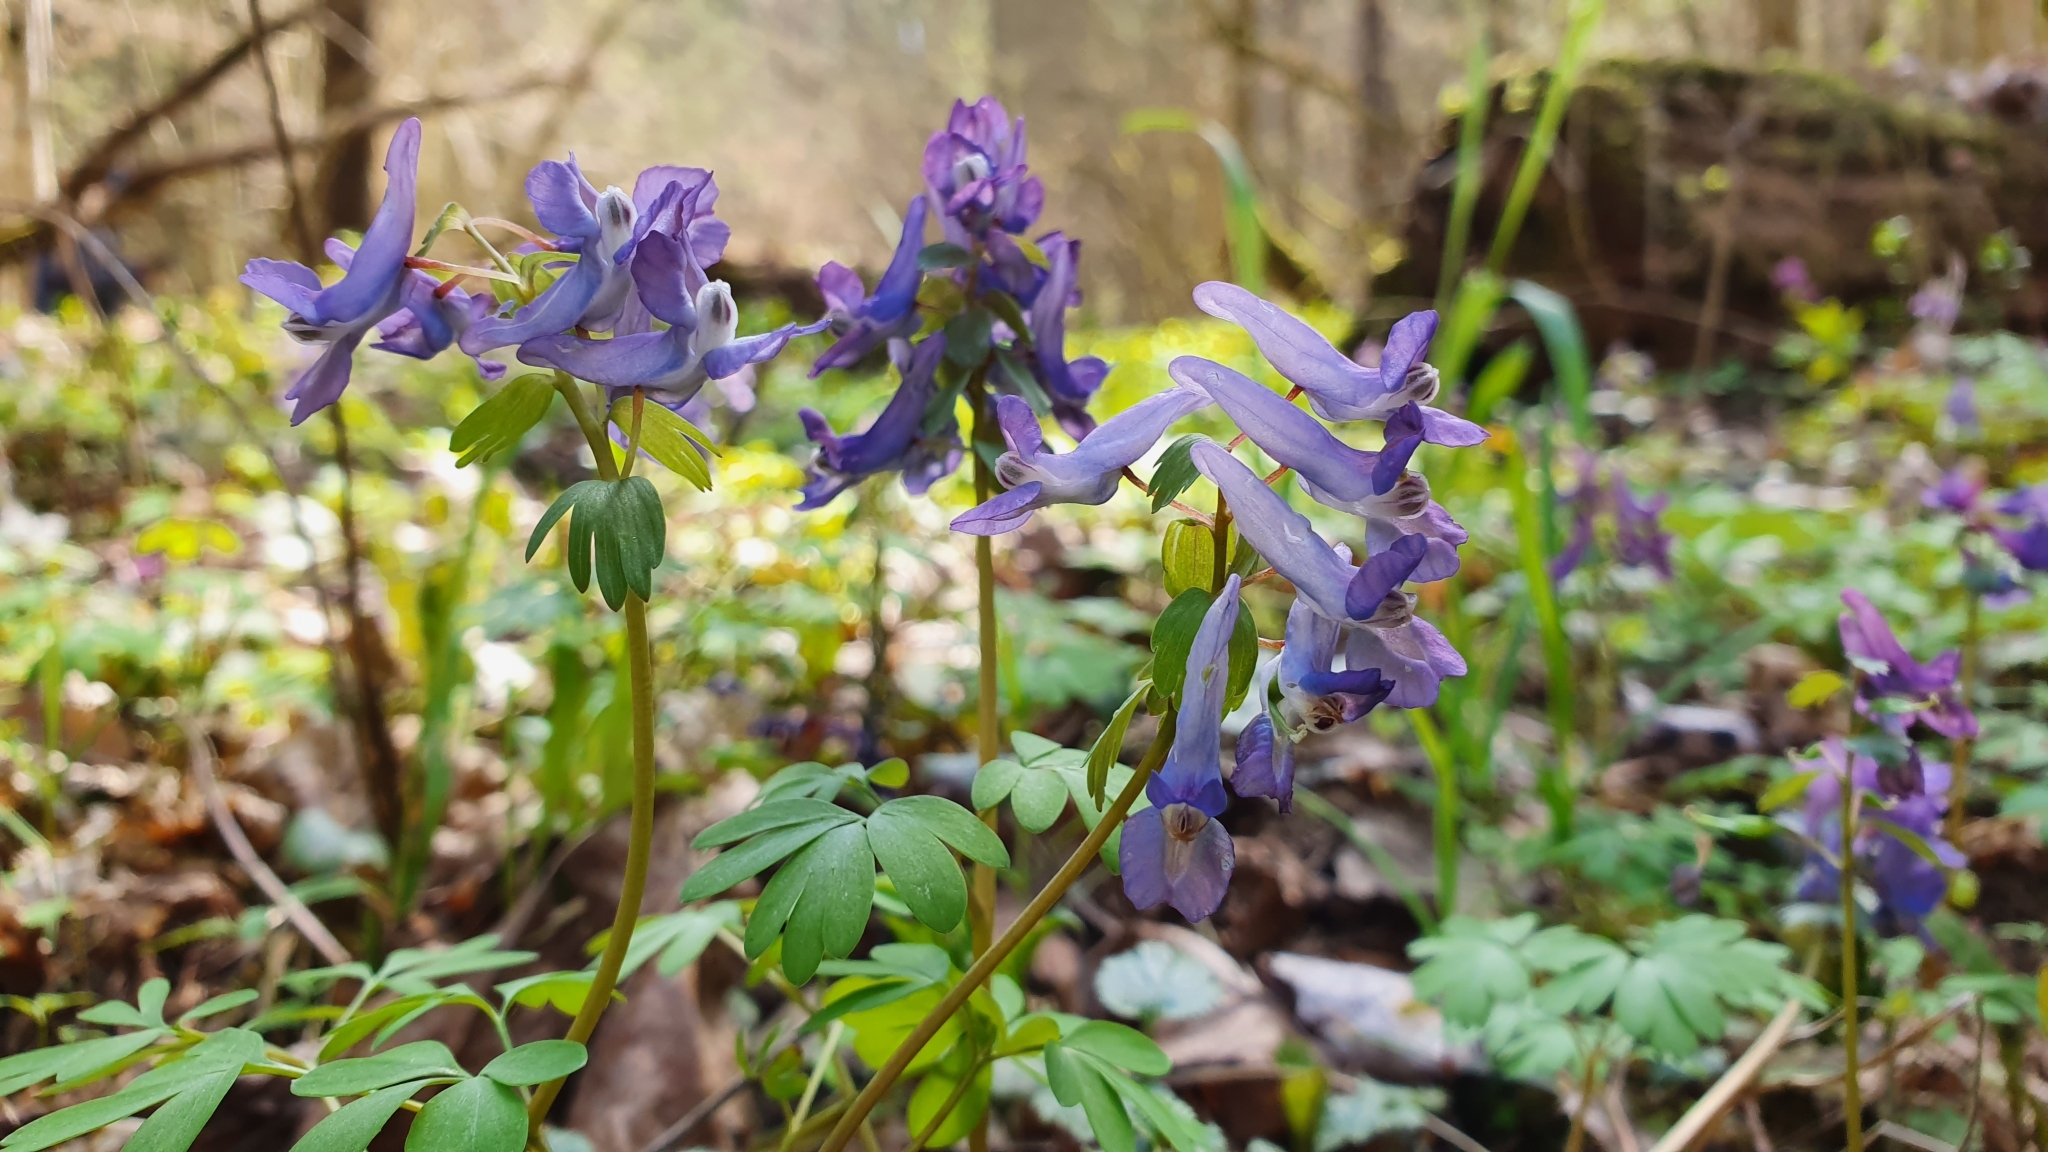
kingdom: Plantae
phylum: Tracheophyta
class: Magnoliopsida
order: Ranunculales
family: Papaveraceae
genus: Corydalis
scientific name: Corydalis solida
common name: Bird-in-a-bush
